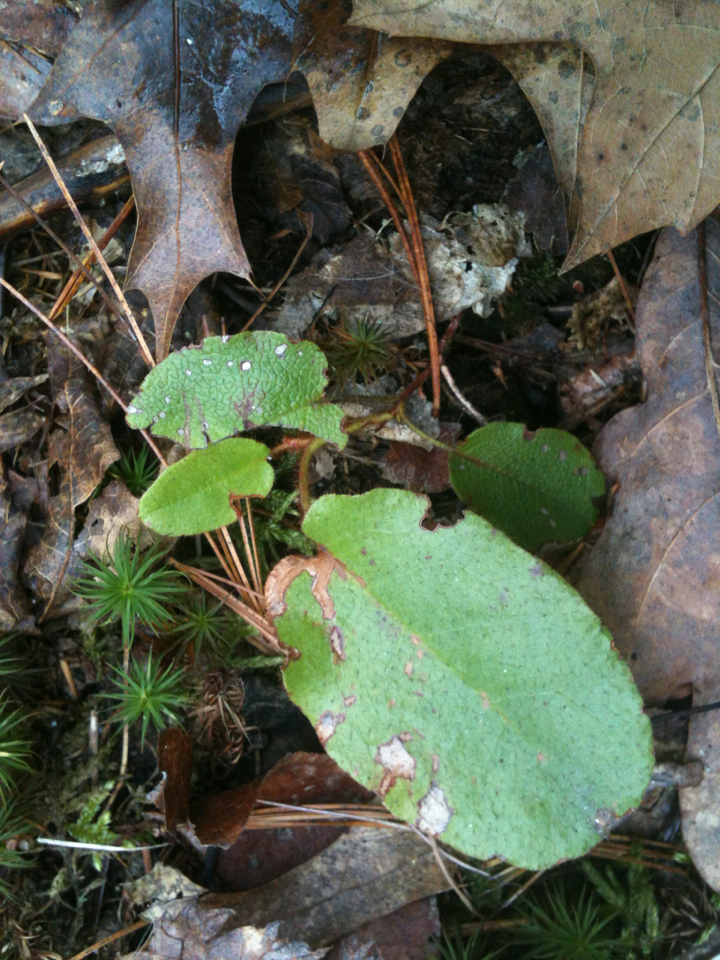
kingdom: Plantae
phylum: Tracheophyta
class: Magnoliopsida
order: Ericales
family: Ericaceae
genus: Epigaea
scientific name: Epigaea repens
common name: Gravelroot
